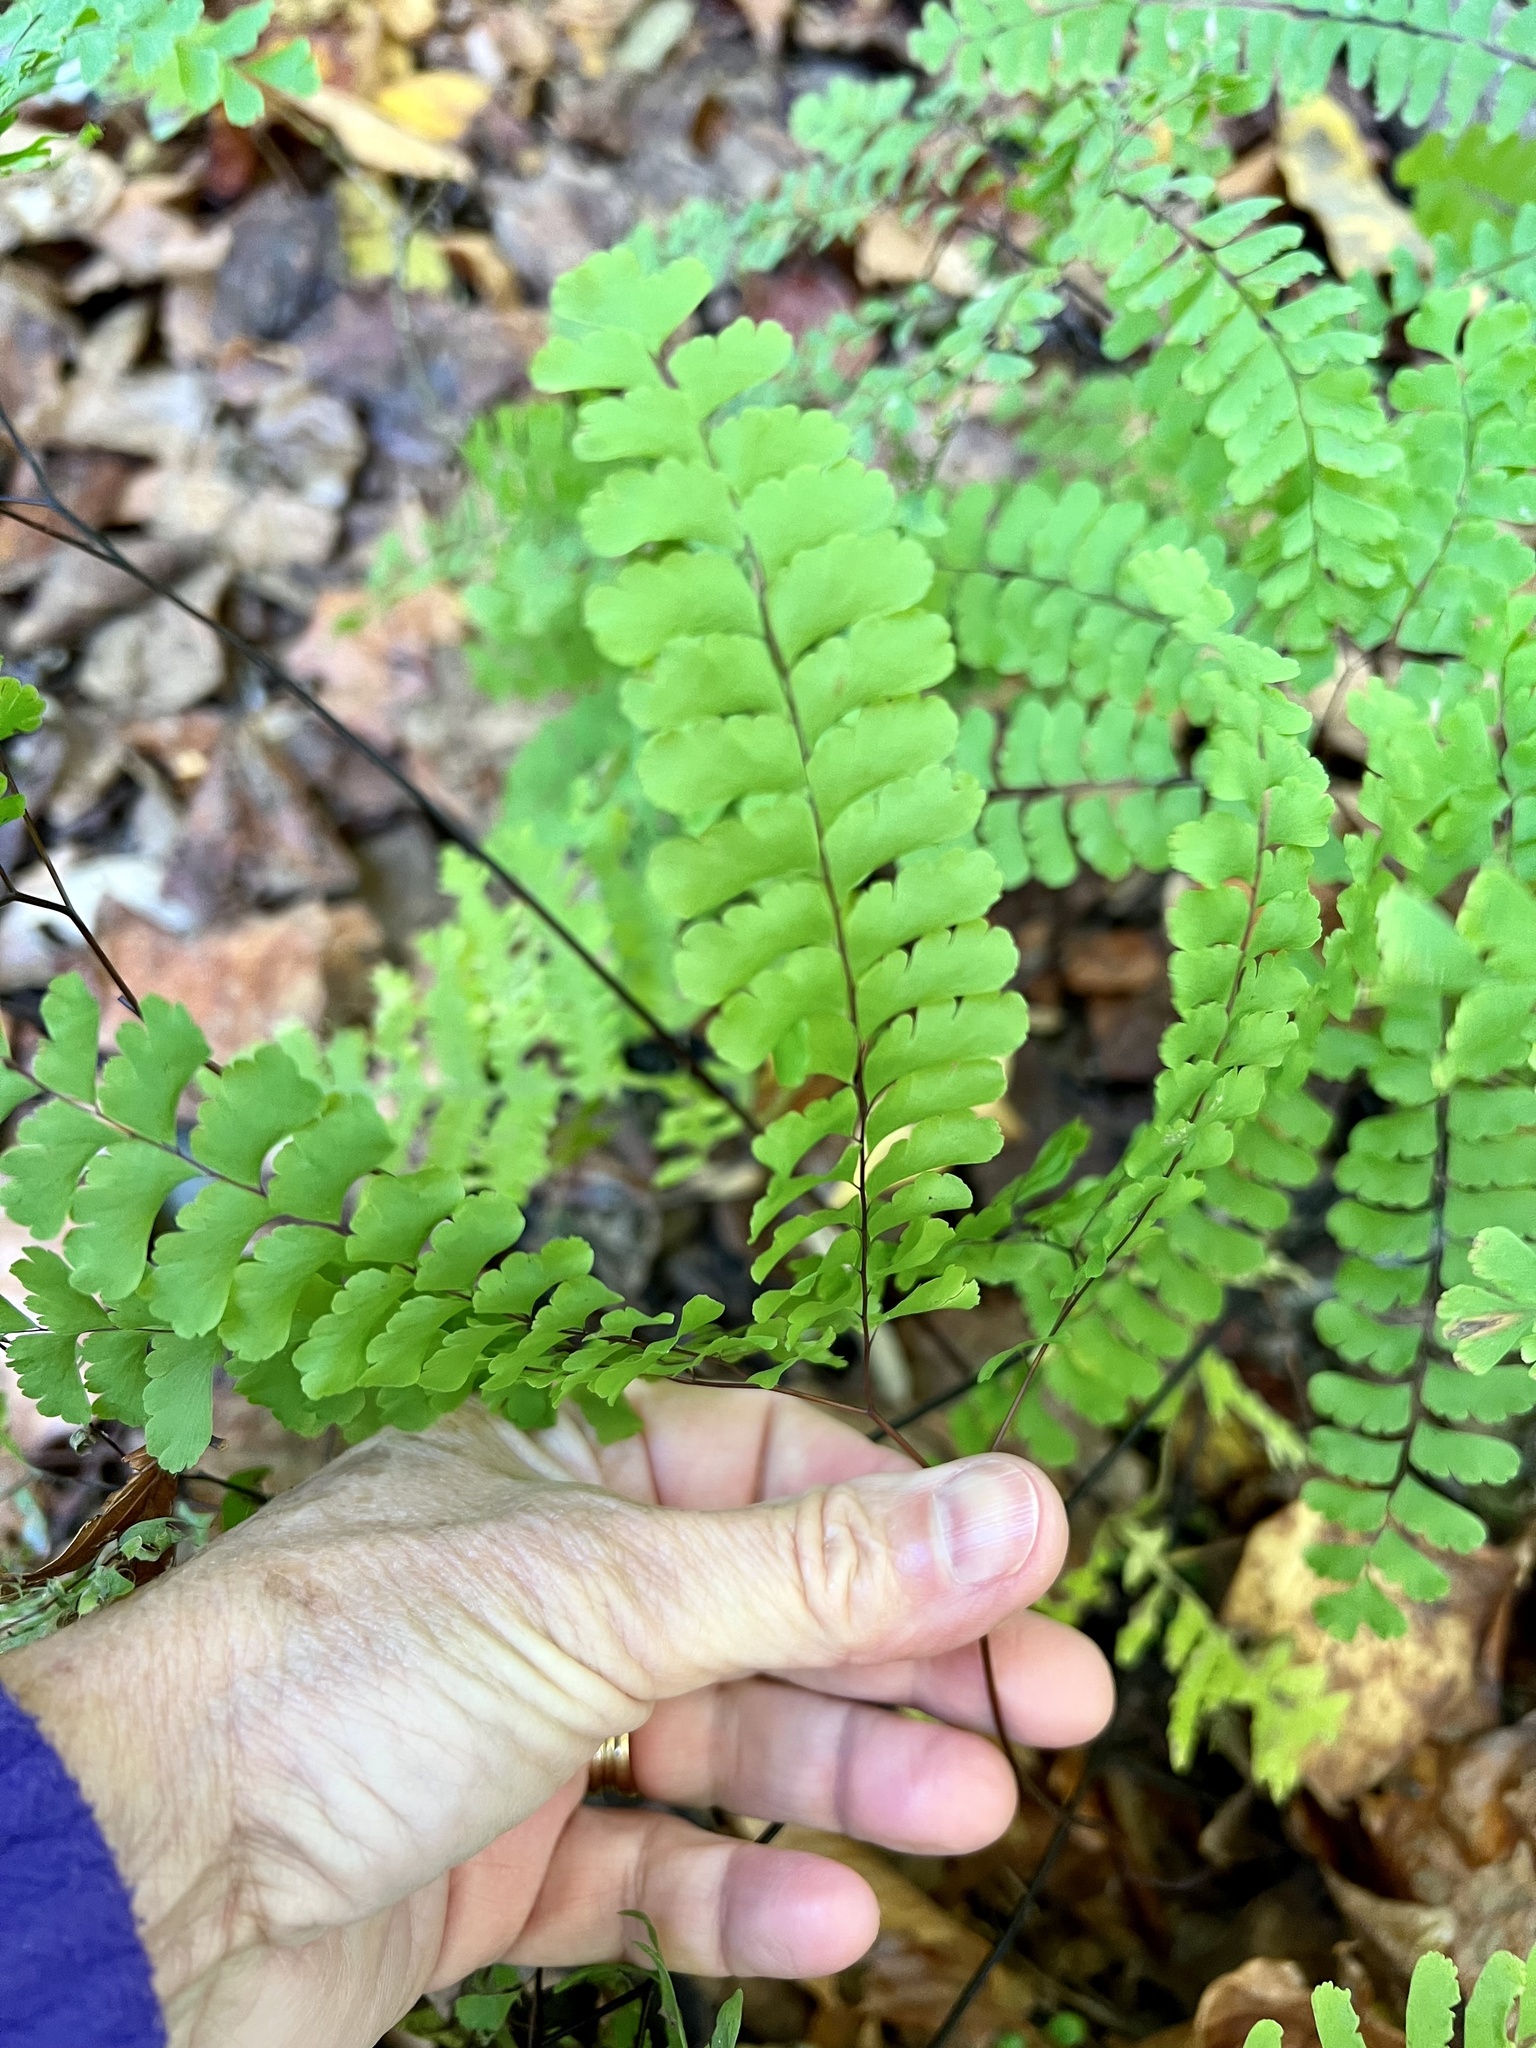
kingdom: Plantae
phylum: Tracheophyta
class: Polypodiopsida
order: Polypodiales
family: Pteridaceae
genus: Adiantum
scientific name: Adiantum pedatum
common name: Five-finger fern
